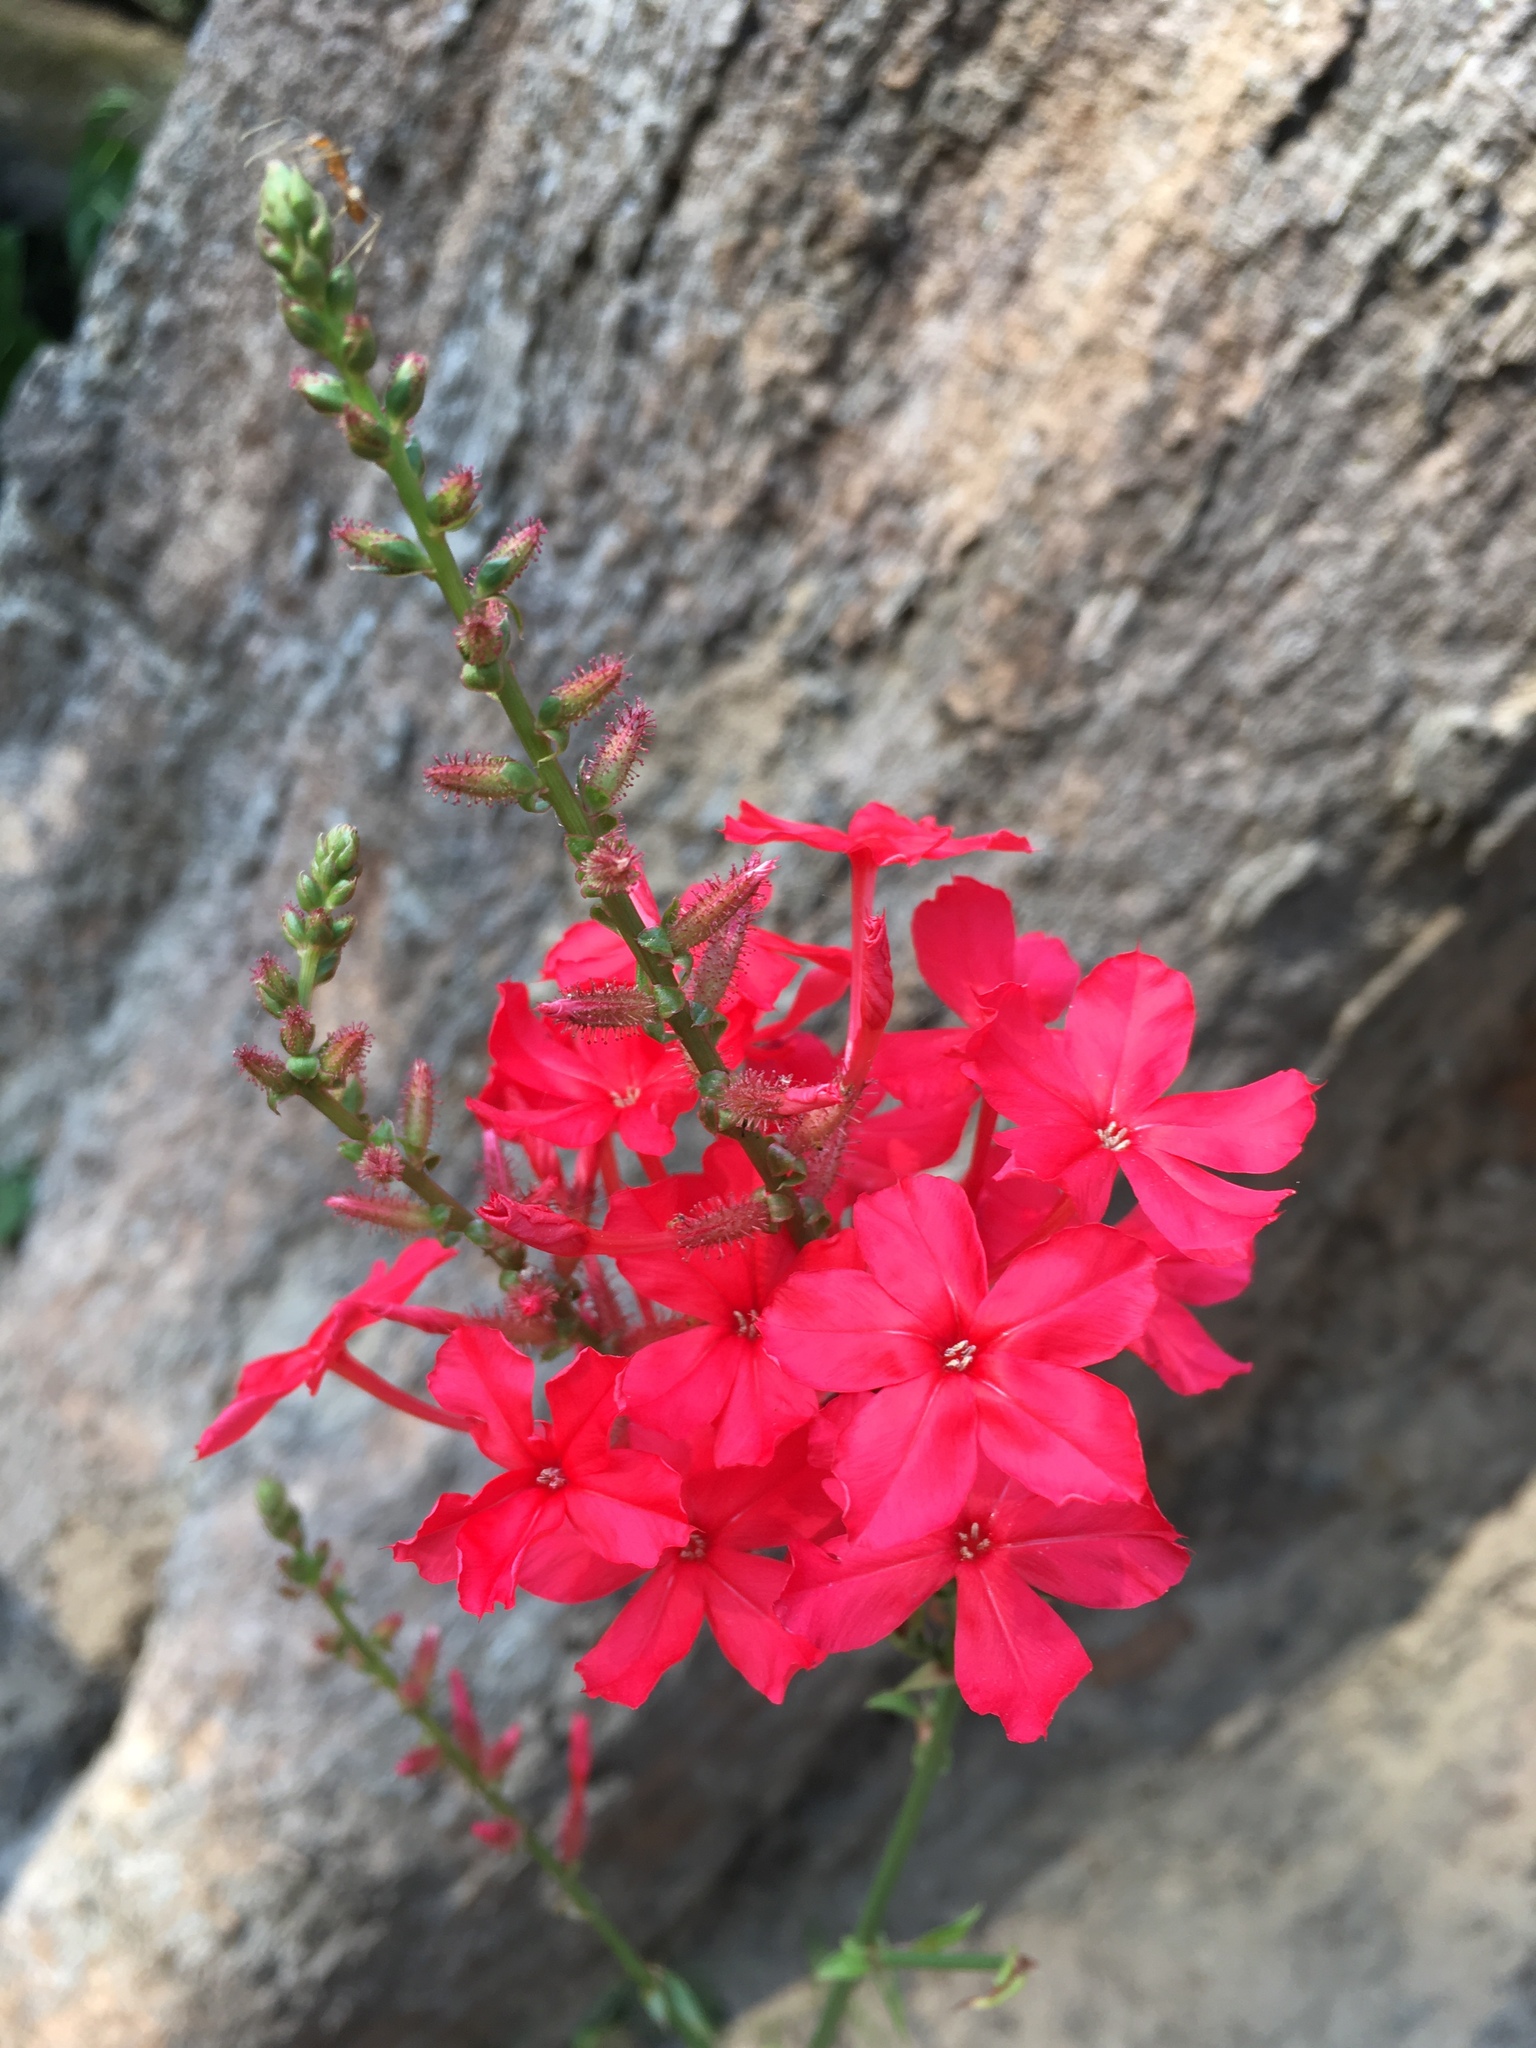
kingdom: Plantae
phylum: Tracheophyta
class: Magnoliopsida
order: Caryophyllales
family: Plumbaginaceae
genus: Plumbago
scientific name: Plumbago indica
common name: Indian leadwort
